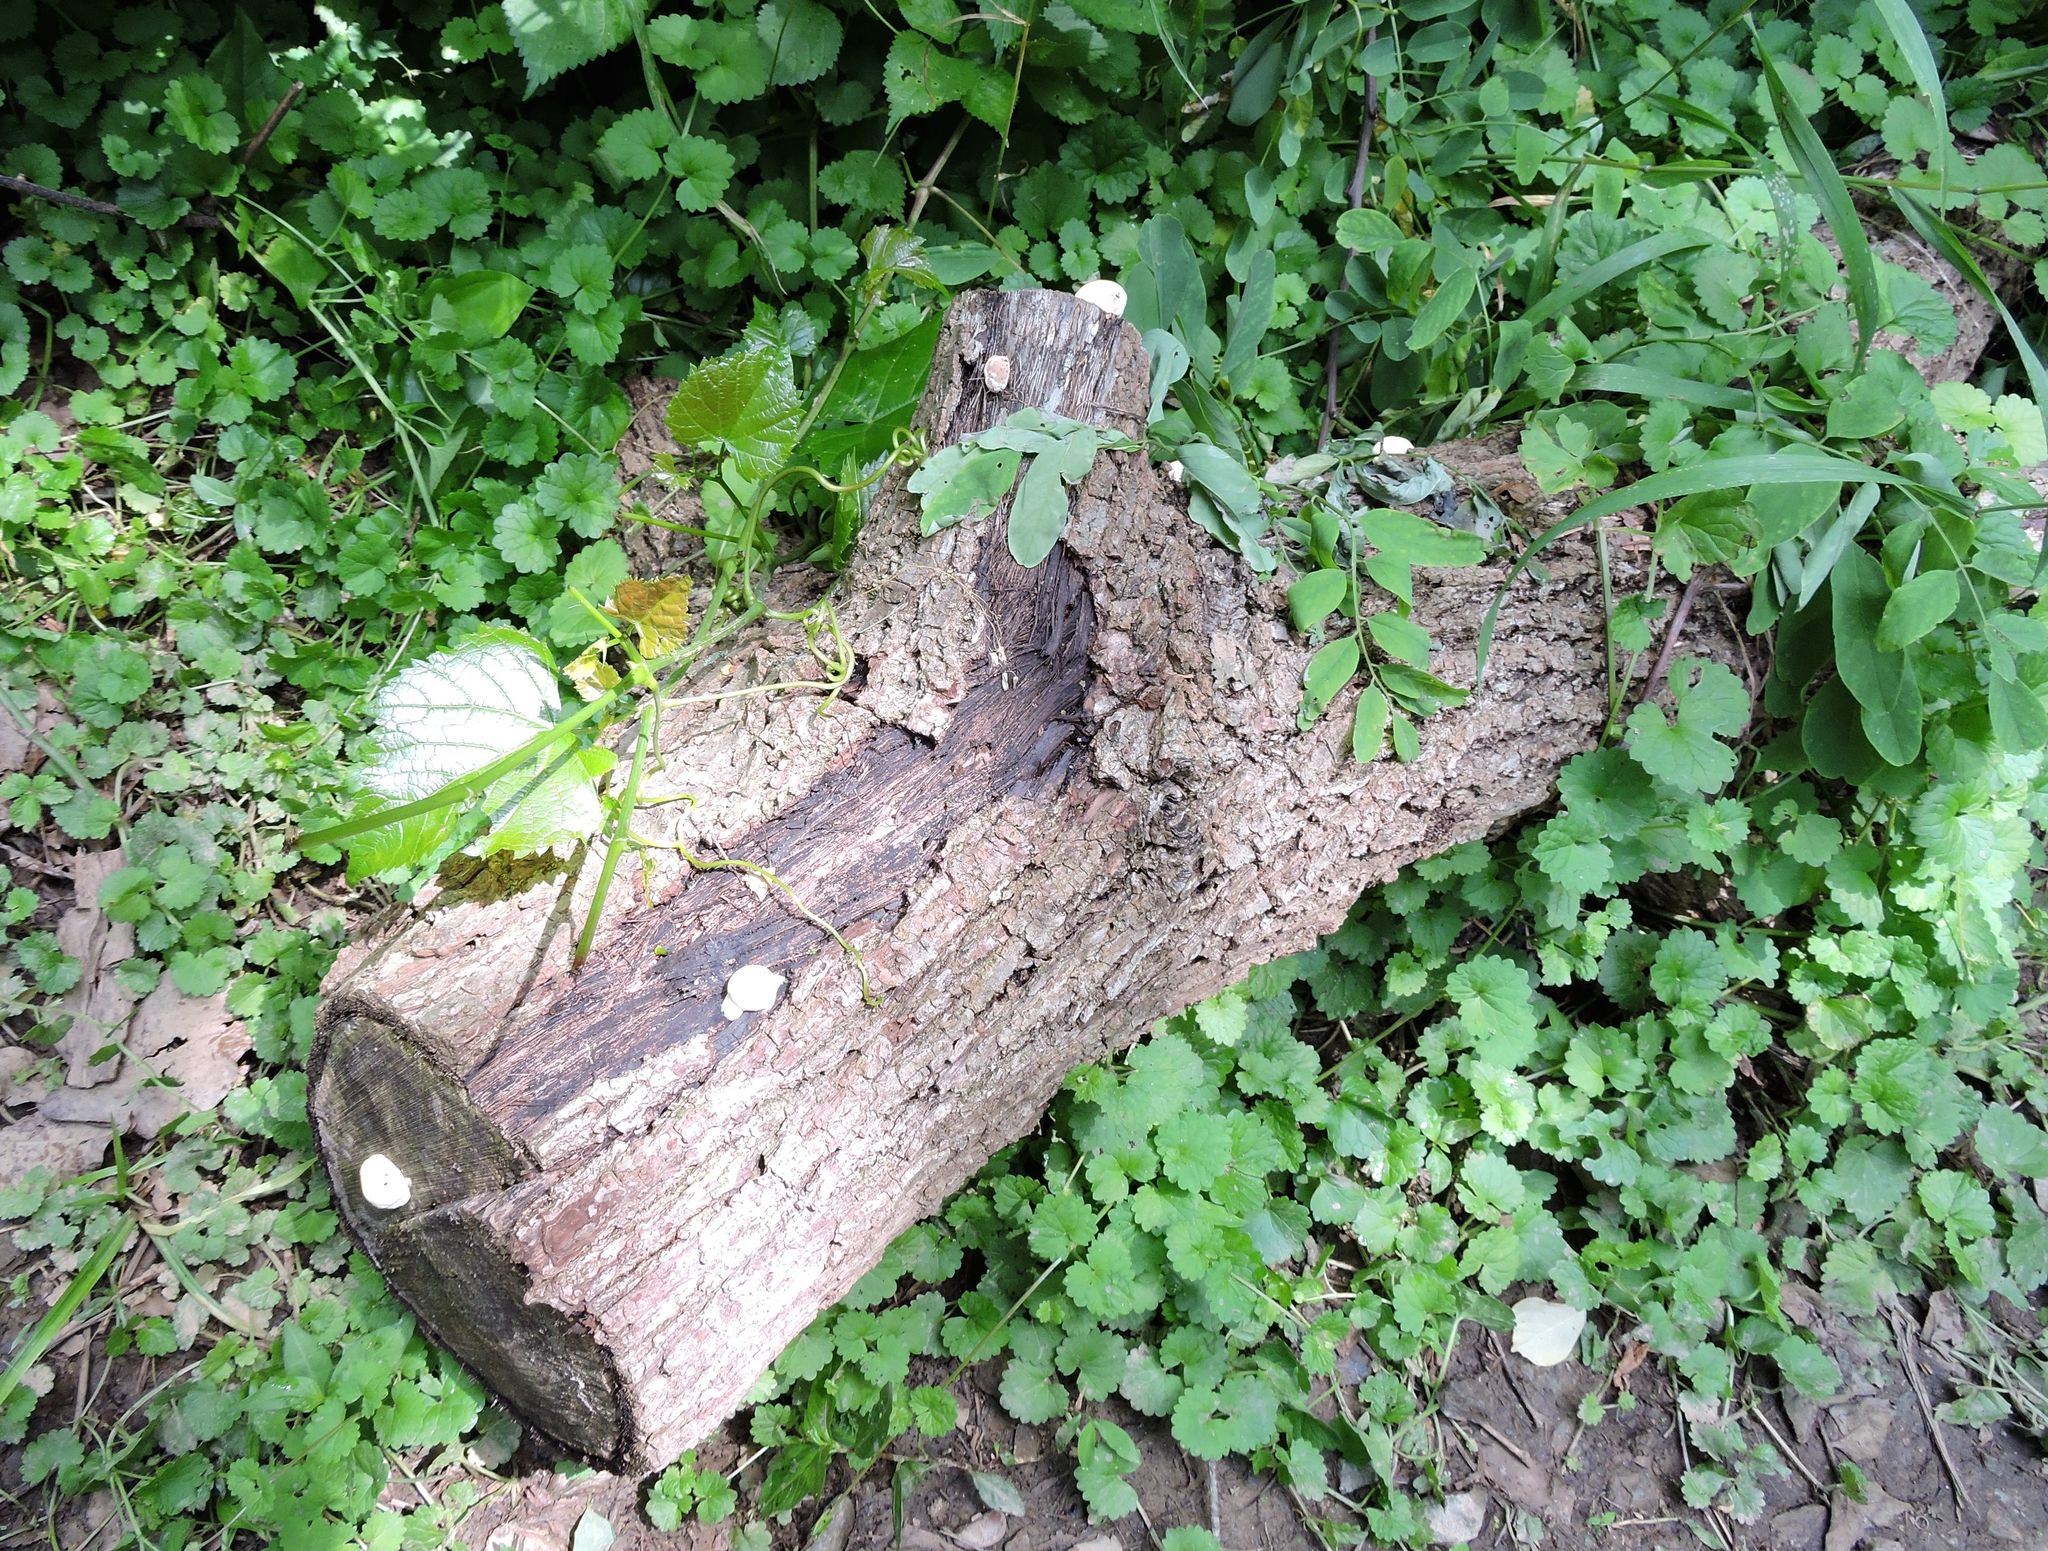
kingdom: Fungi
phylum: Basidiomycota
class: Agaricomycetes
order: Polyporales
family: Incrustoporiaceae
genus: Tyromyces
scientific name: Tyromyces chioneus
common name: White cheese polypore
